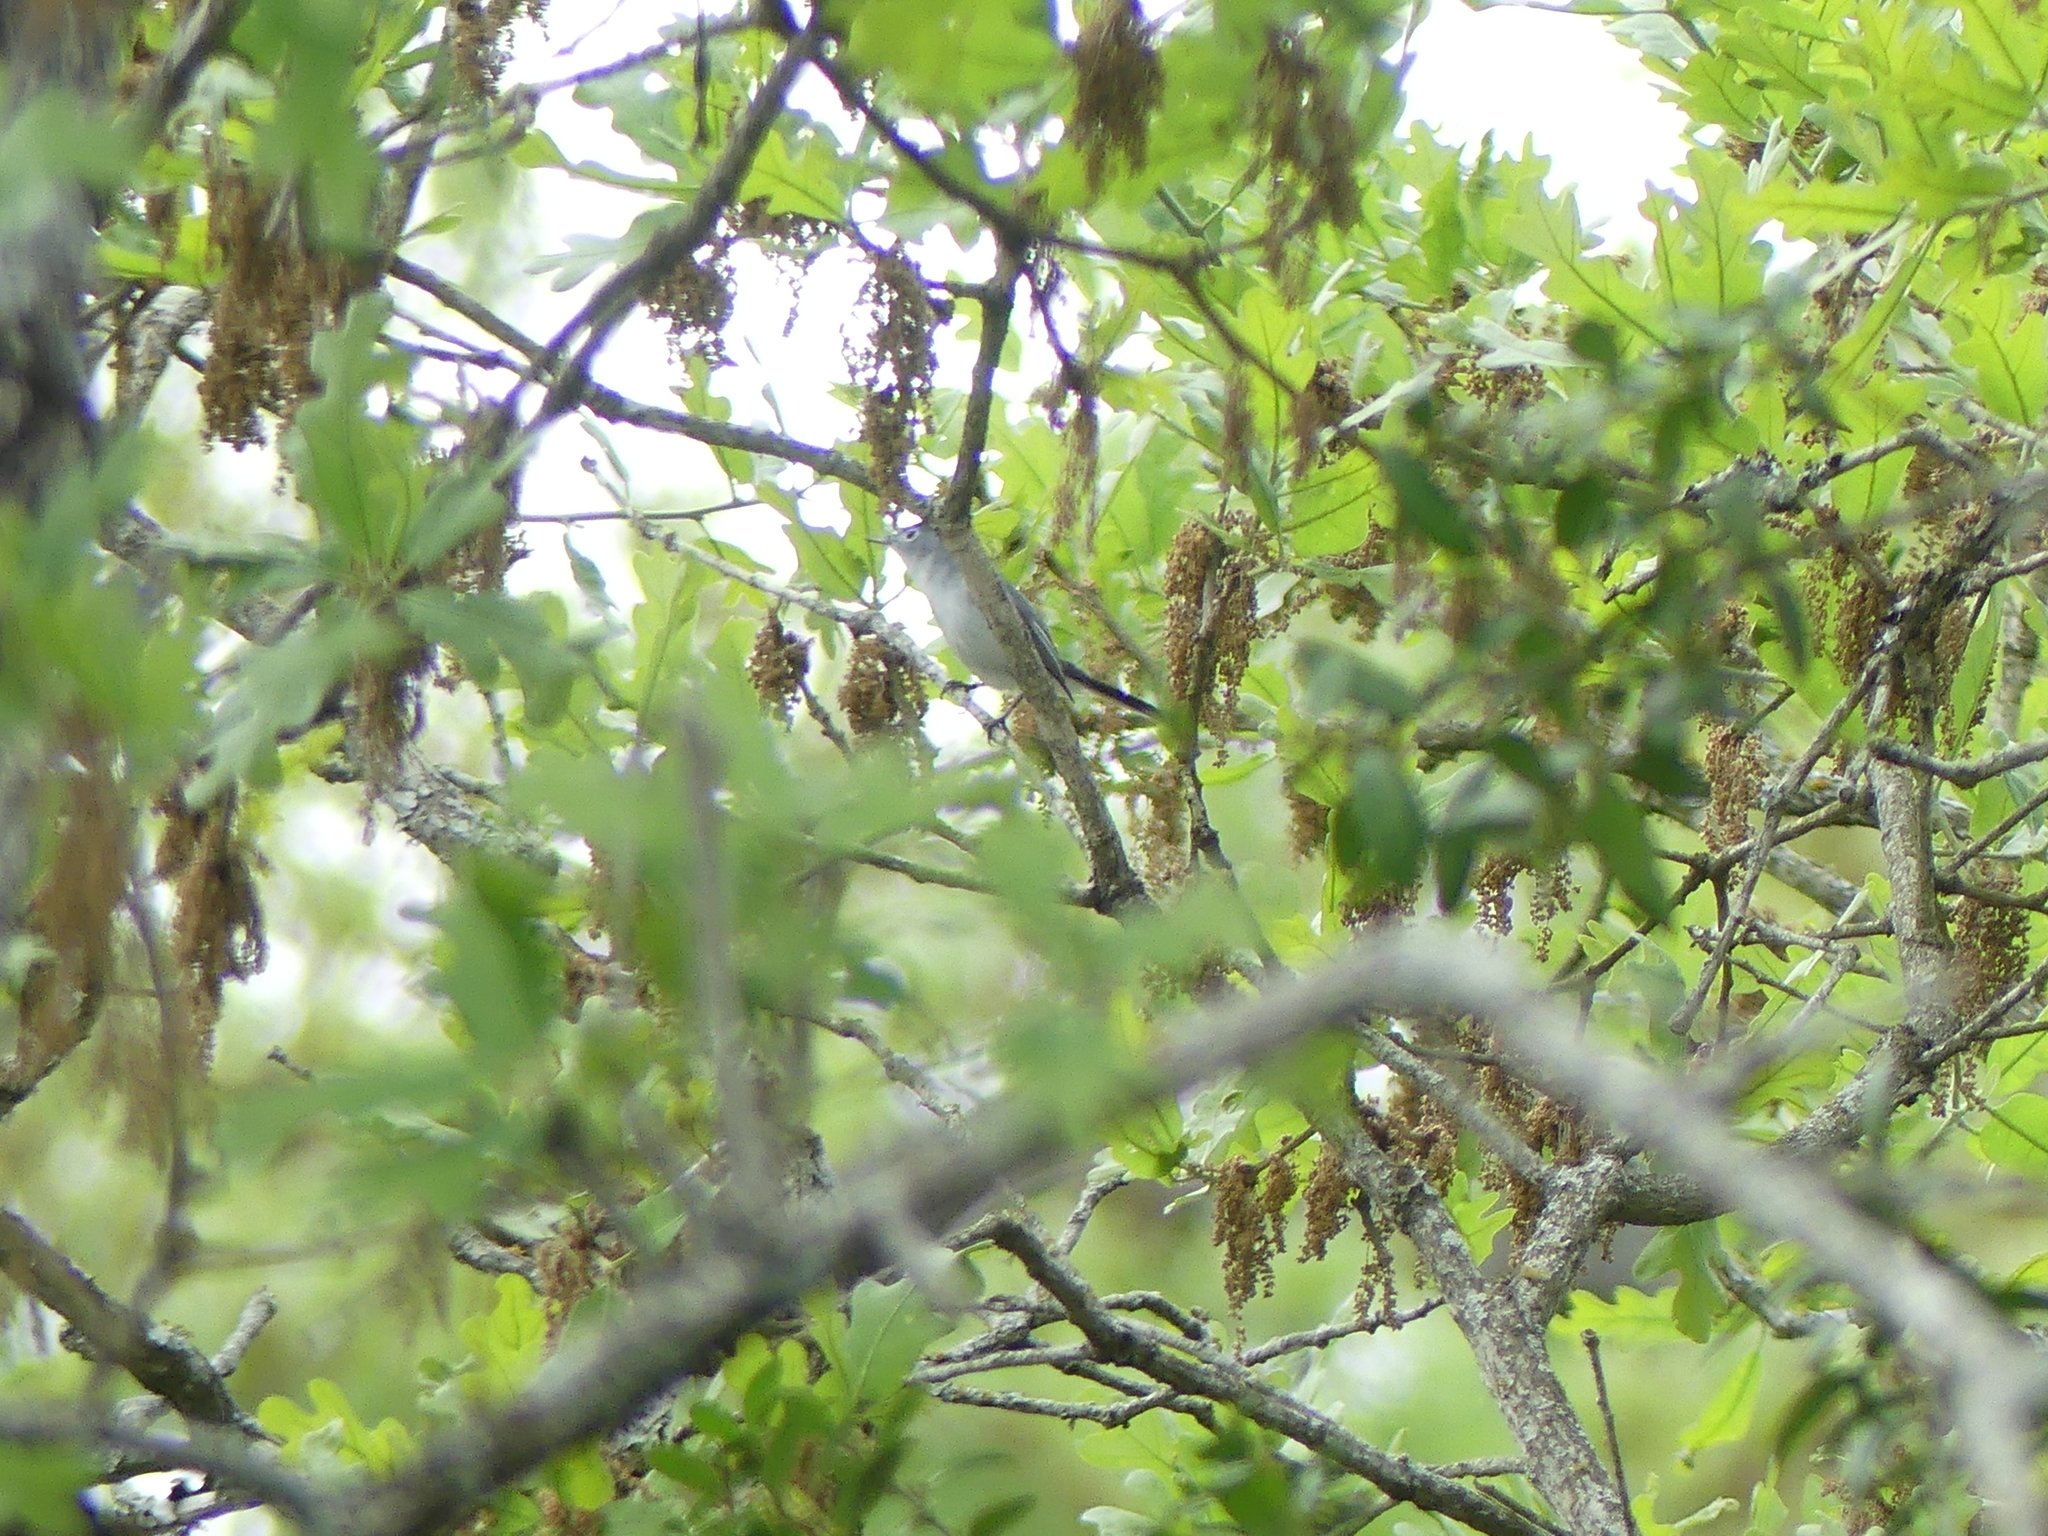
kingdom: Animalia
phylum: Chordata
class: Aves
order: Passeriformes
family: Polioptilidae
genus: Polioptila
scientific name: Polioptila caerulea
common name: Blue-gray gnatcatcher
